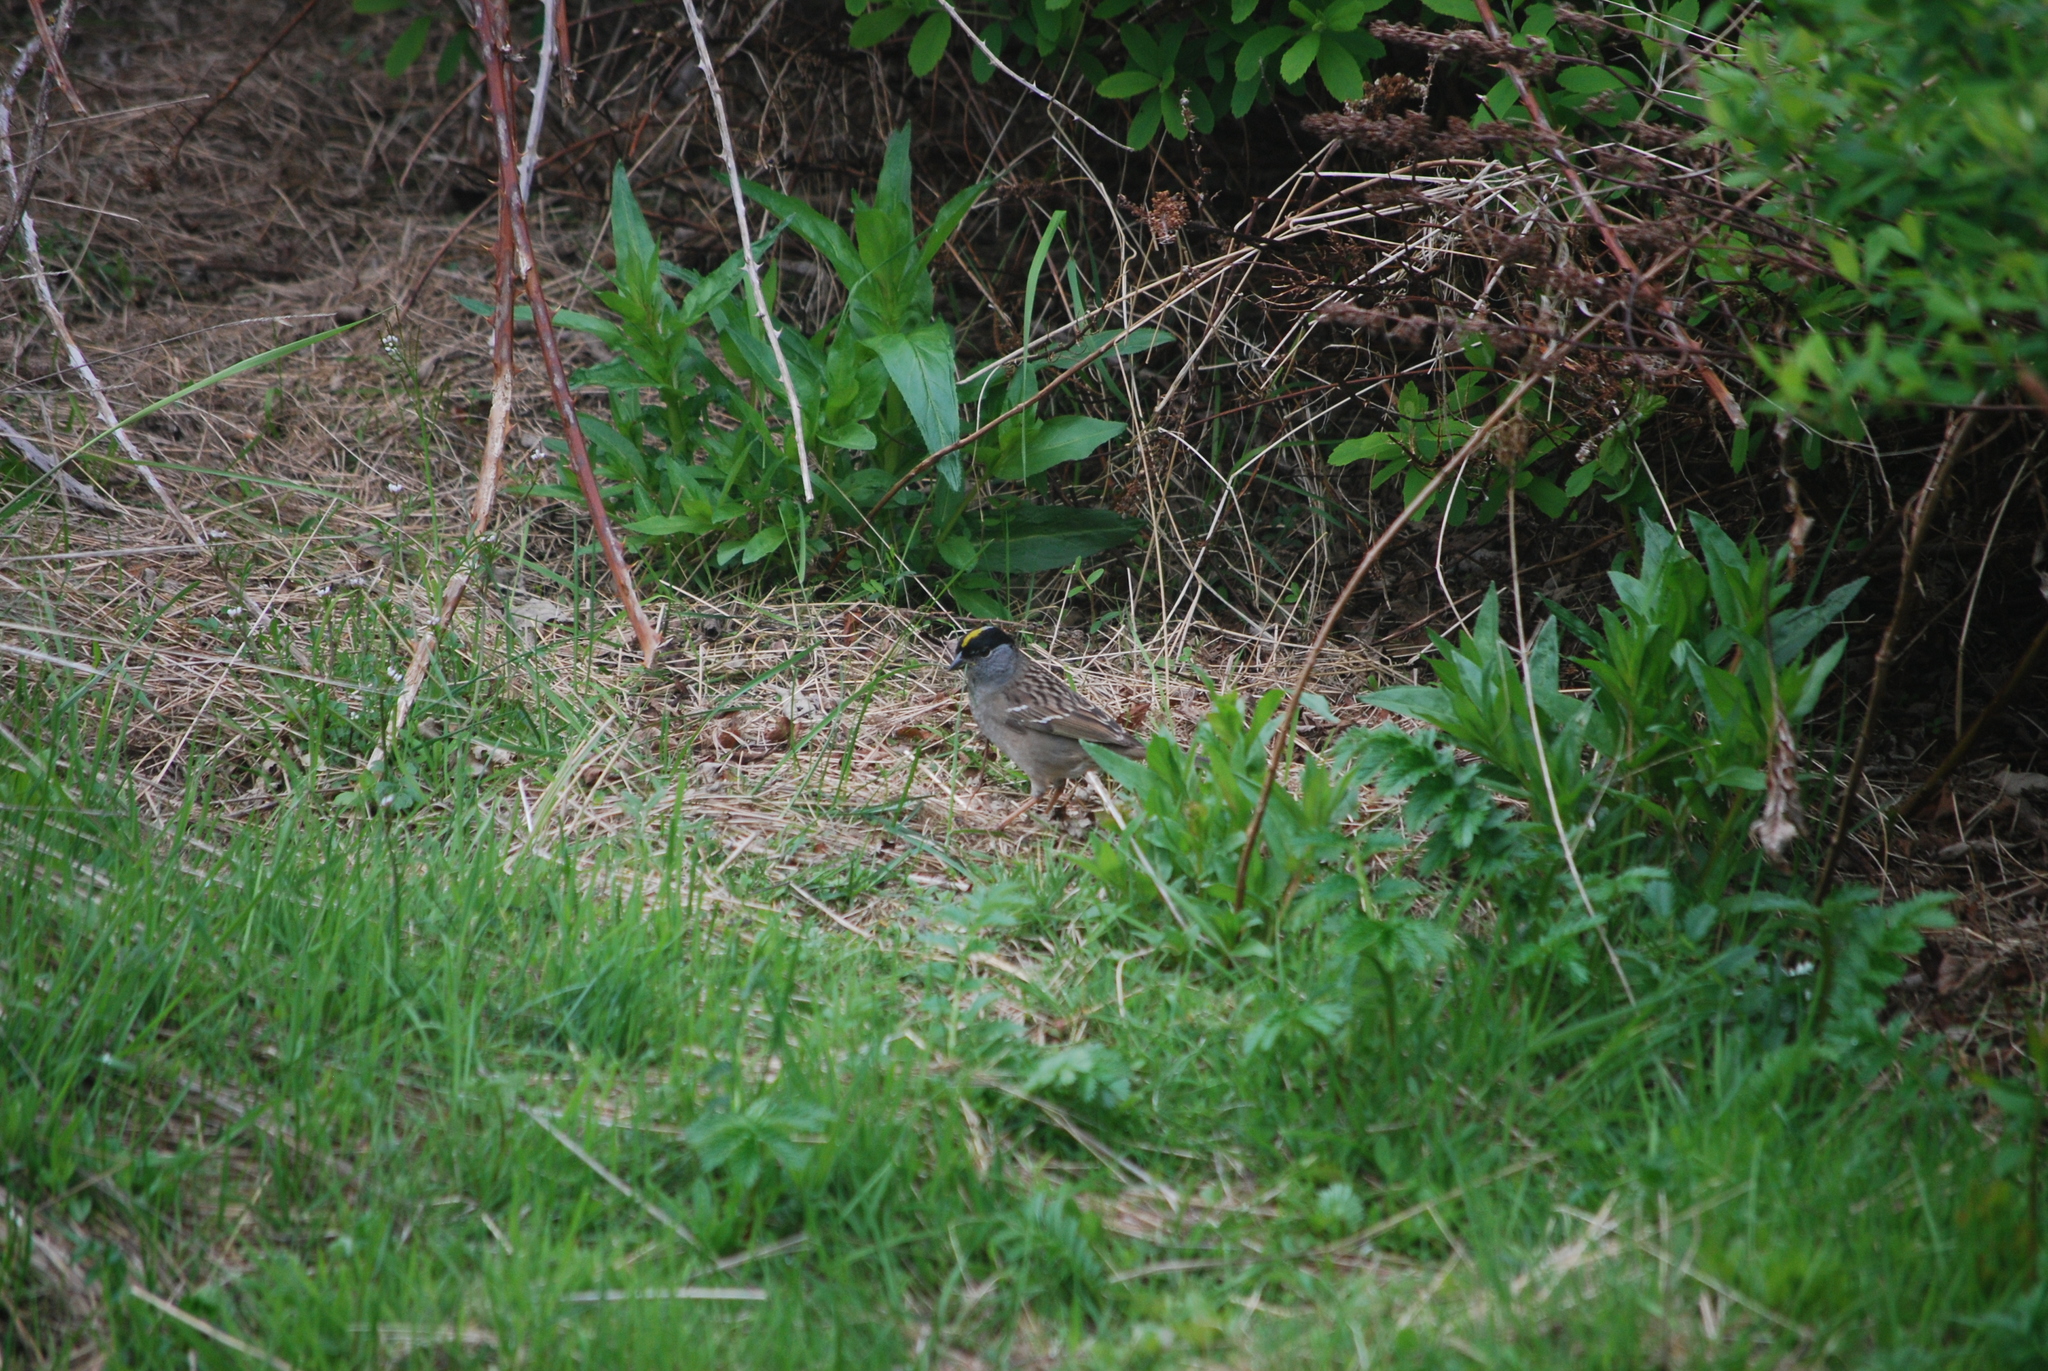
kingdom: Animalia
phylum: Chordata
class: Aves
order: Passeriformes
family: Passerellidae
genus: Zonotrichia
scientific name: Zonotrichia atricapilla
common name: Golden-crowned sparrow
